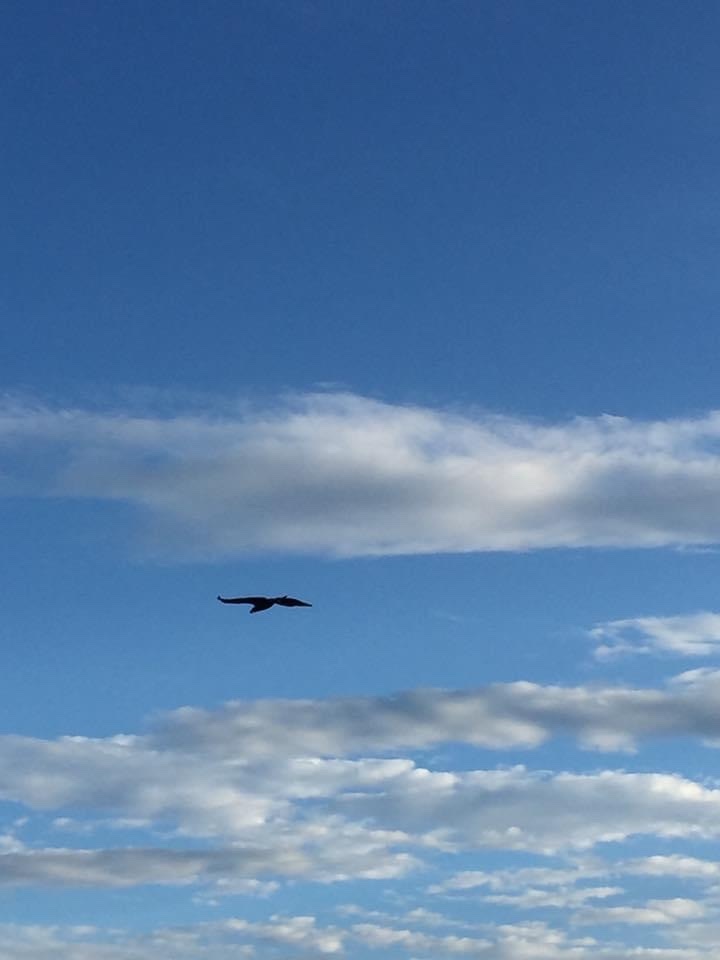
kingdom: Animalia
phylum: Chordata
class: Aves
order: Accipitriformes
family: Accipitridae
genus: Haliaeetus
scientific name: Haliaeetus leucocephalus
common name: Bald eagle
